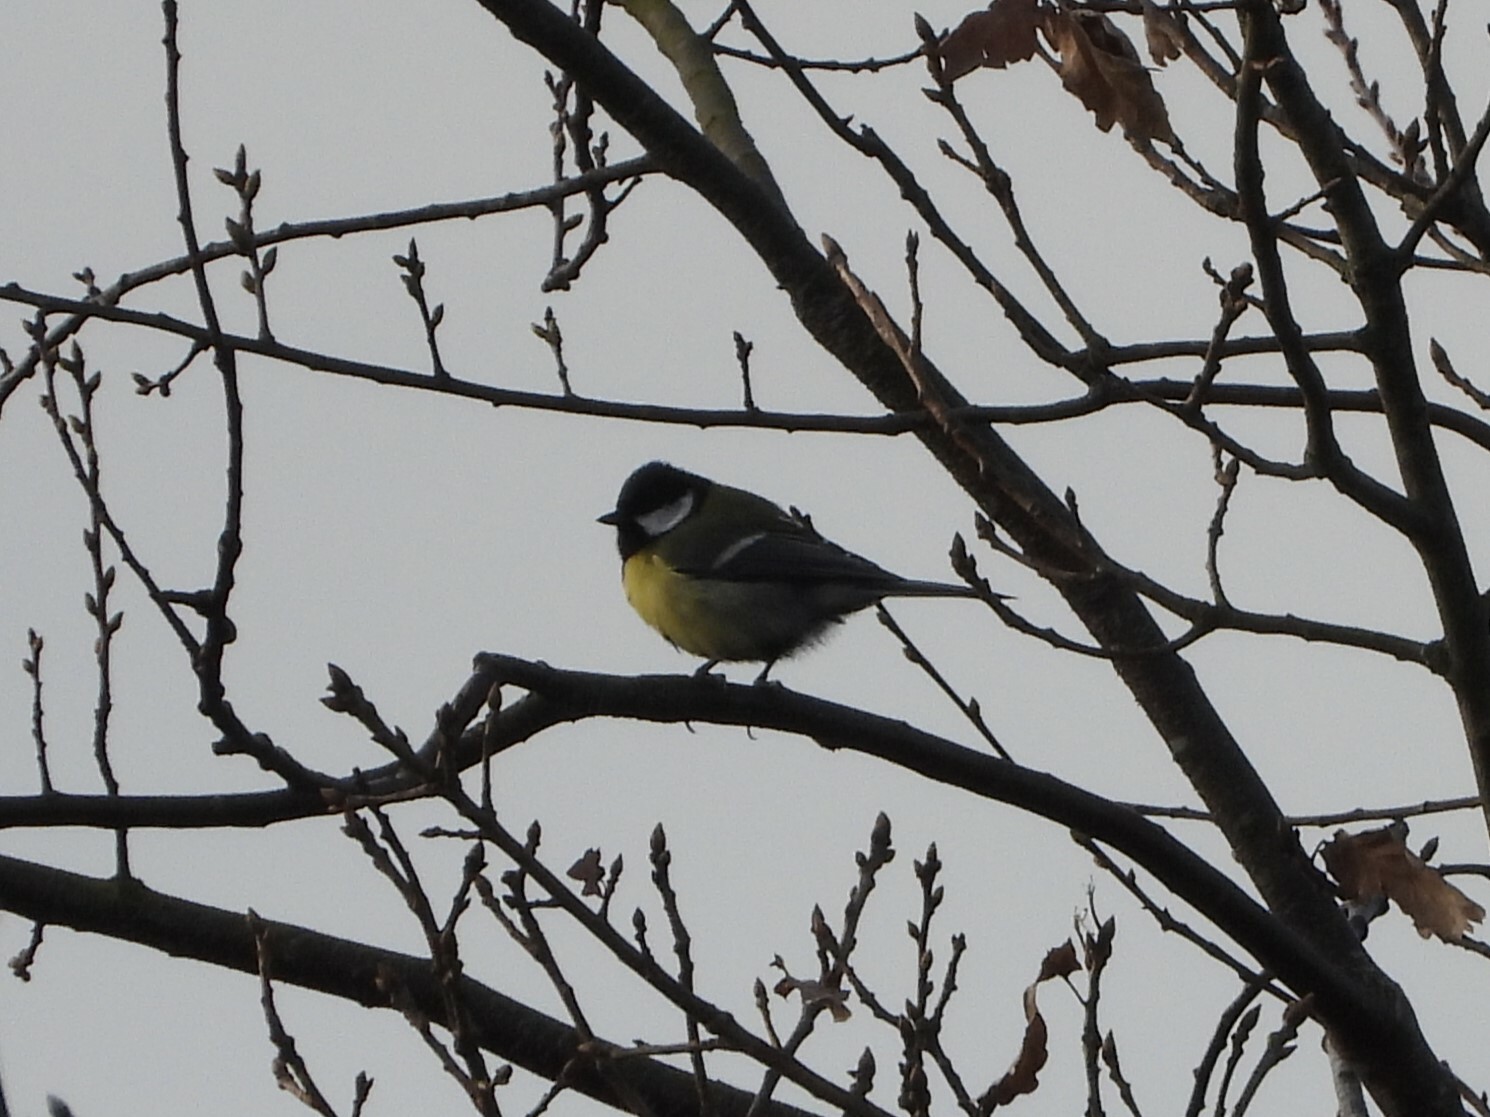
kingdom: Animalia
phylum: Chordata
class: Aves
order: Passeriformes
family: Paridae
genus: Parus
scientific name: Parus major
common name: Great tit
